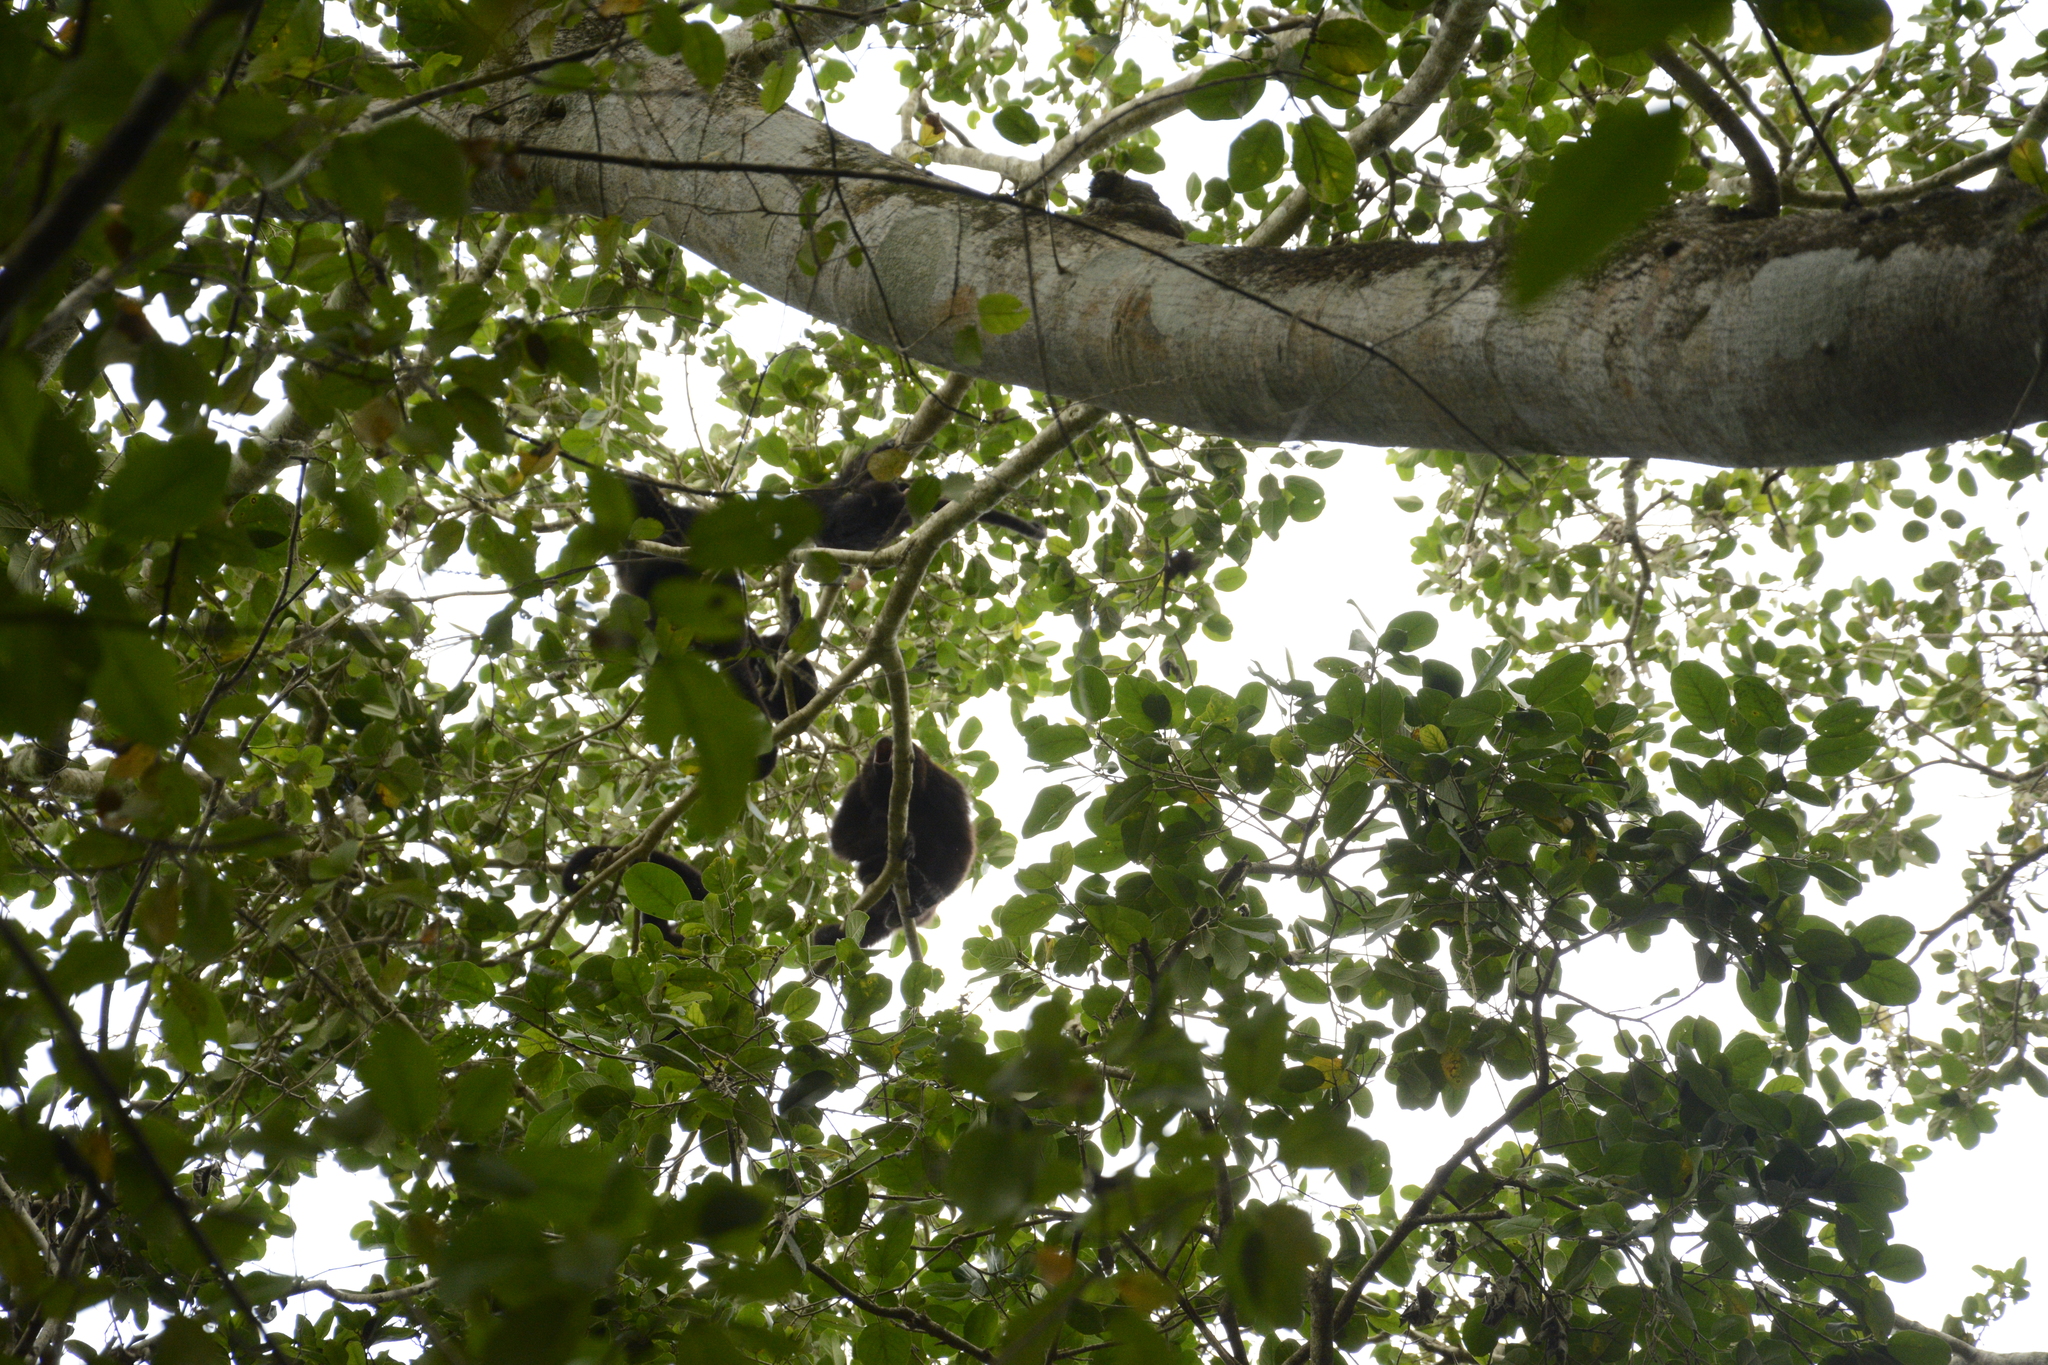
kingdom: Animalia
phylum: Chordata
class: Mammalia
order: Primates
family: Atelidae
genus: Alouatta
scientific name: Alouatta pigra
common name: Guatemalan black howler
